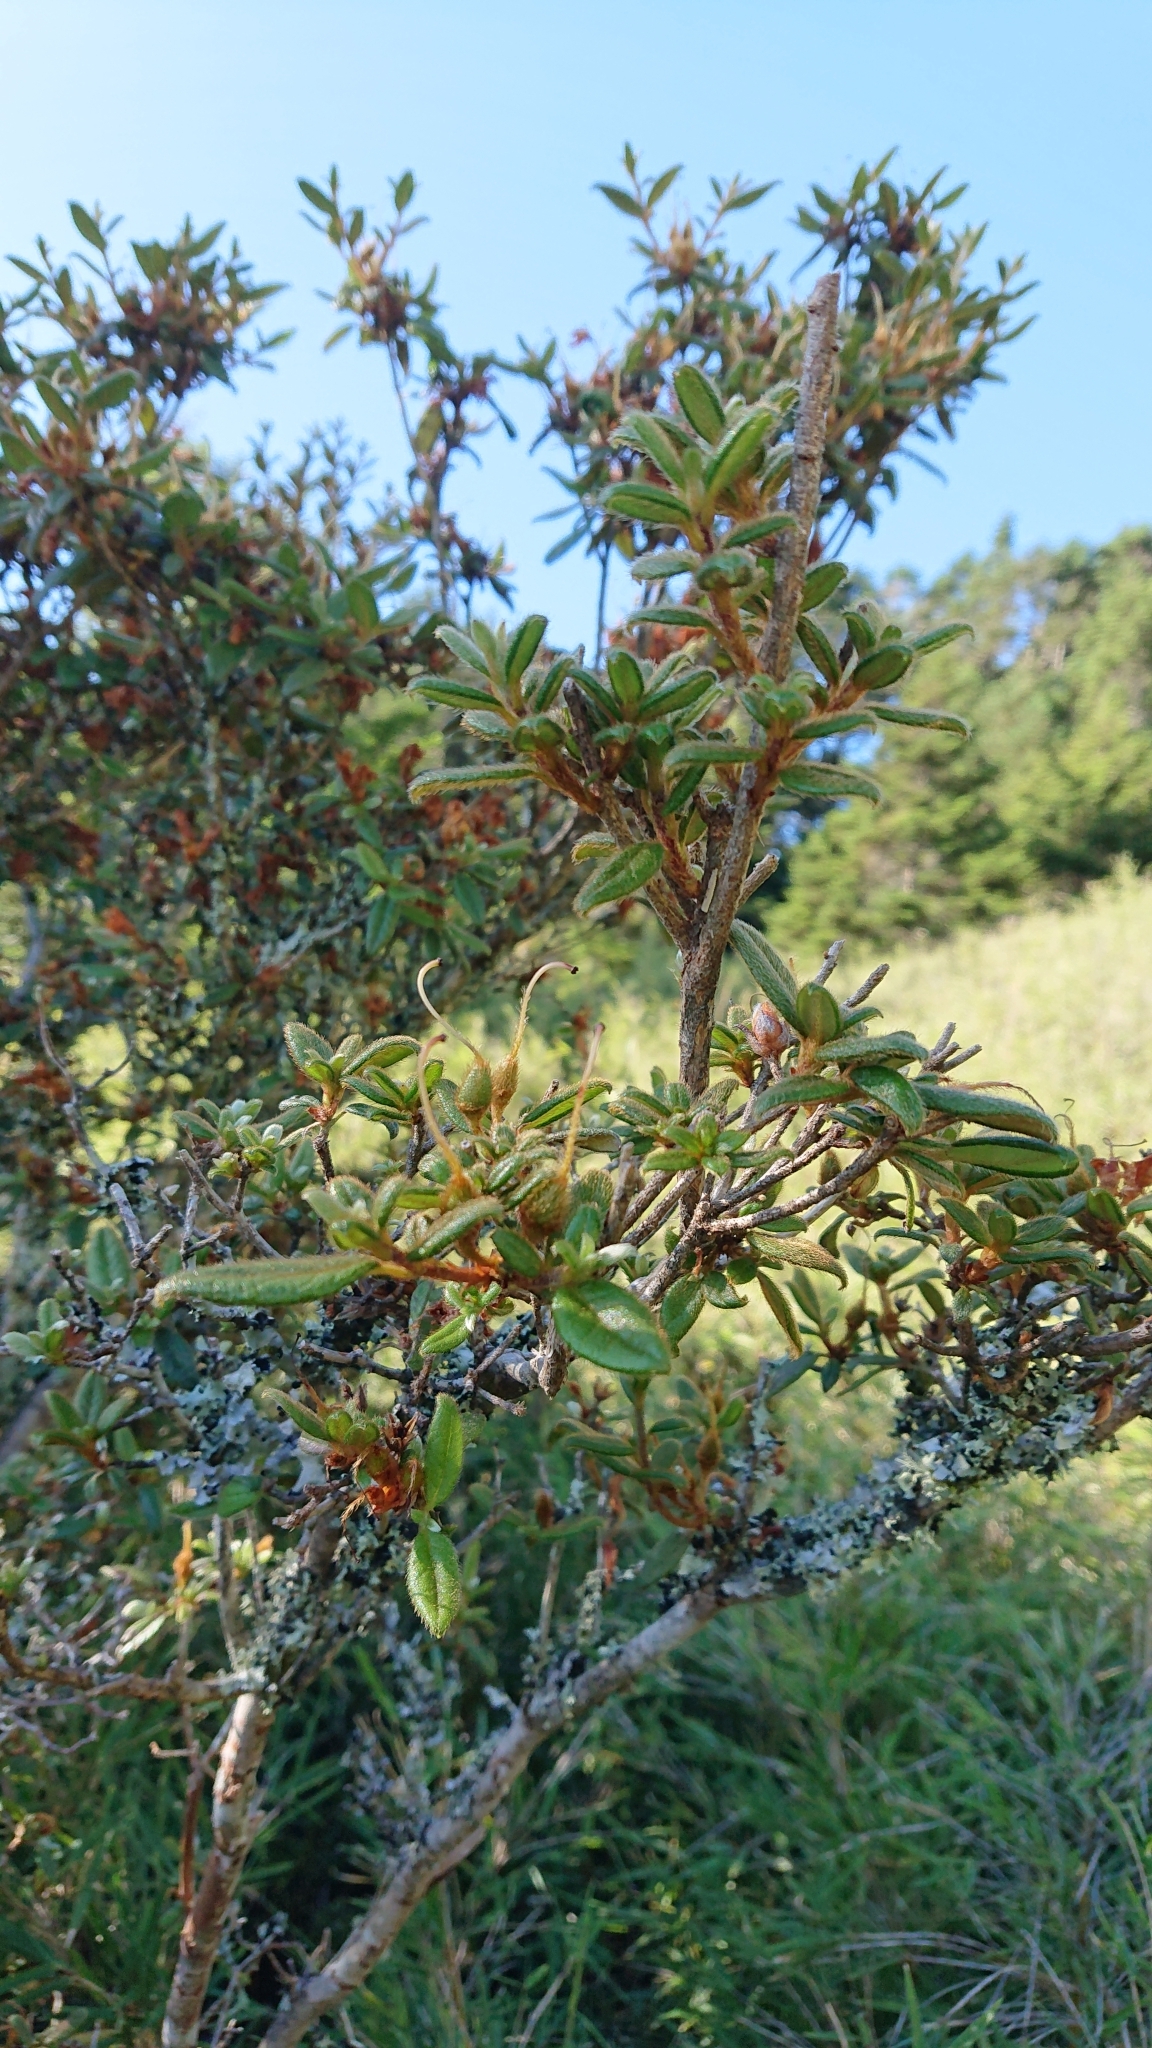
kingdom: Plantae
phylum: Tracheophyta
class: Magnoliopsida
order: Ericales
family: Ericaceae
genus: Rhododendron
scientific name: Rhododendron taiwanalpinum
